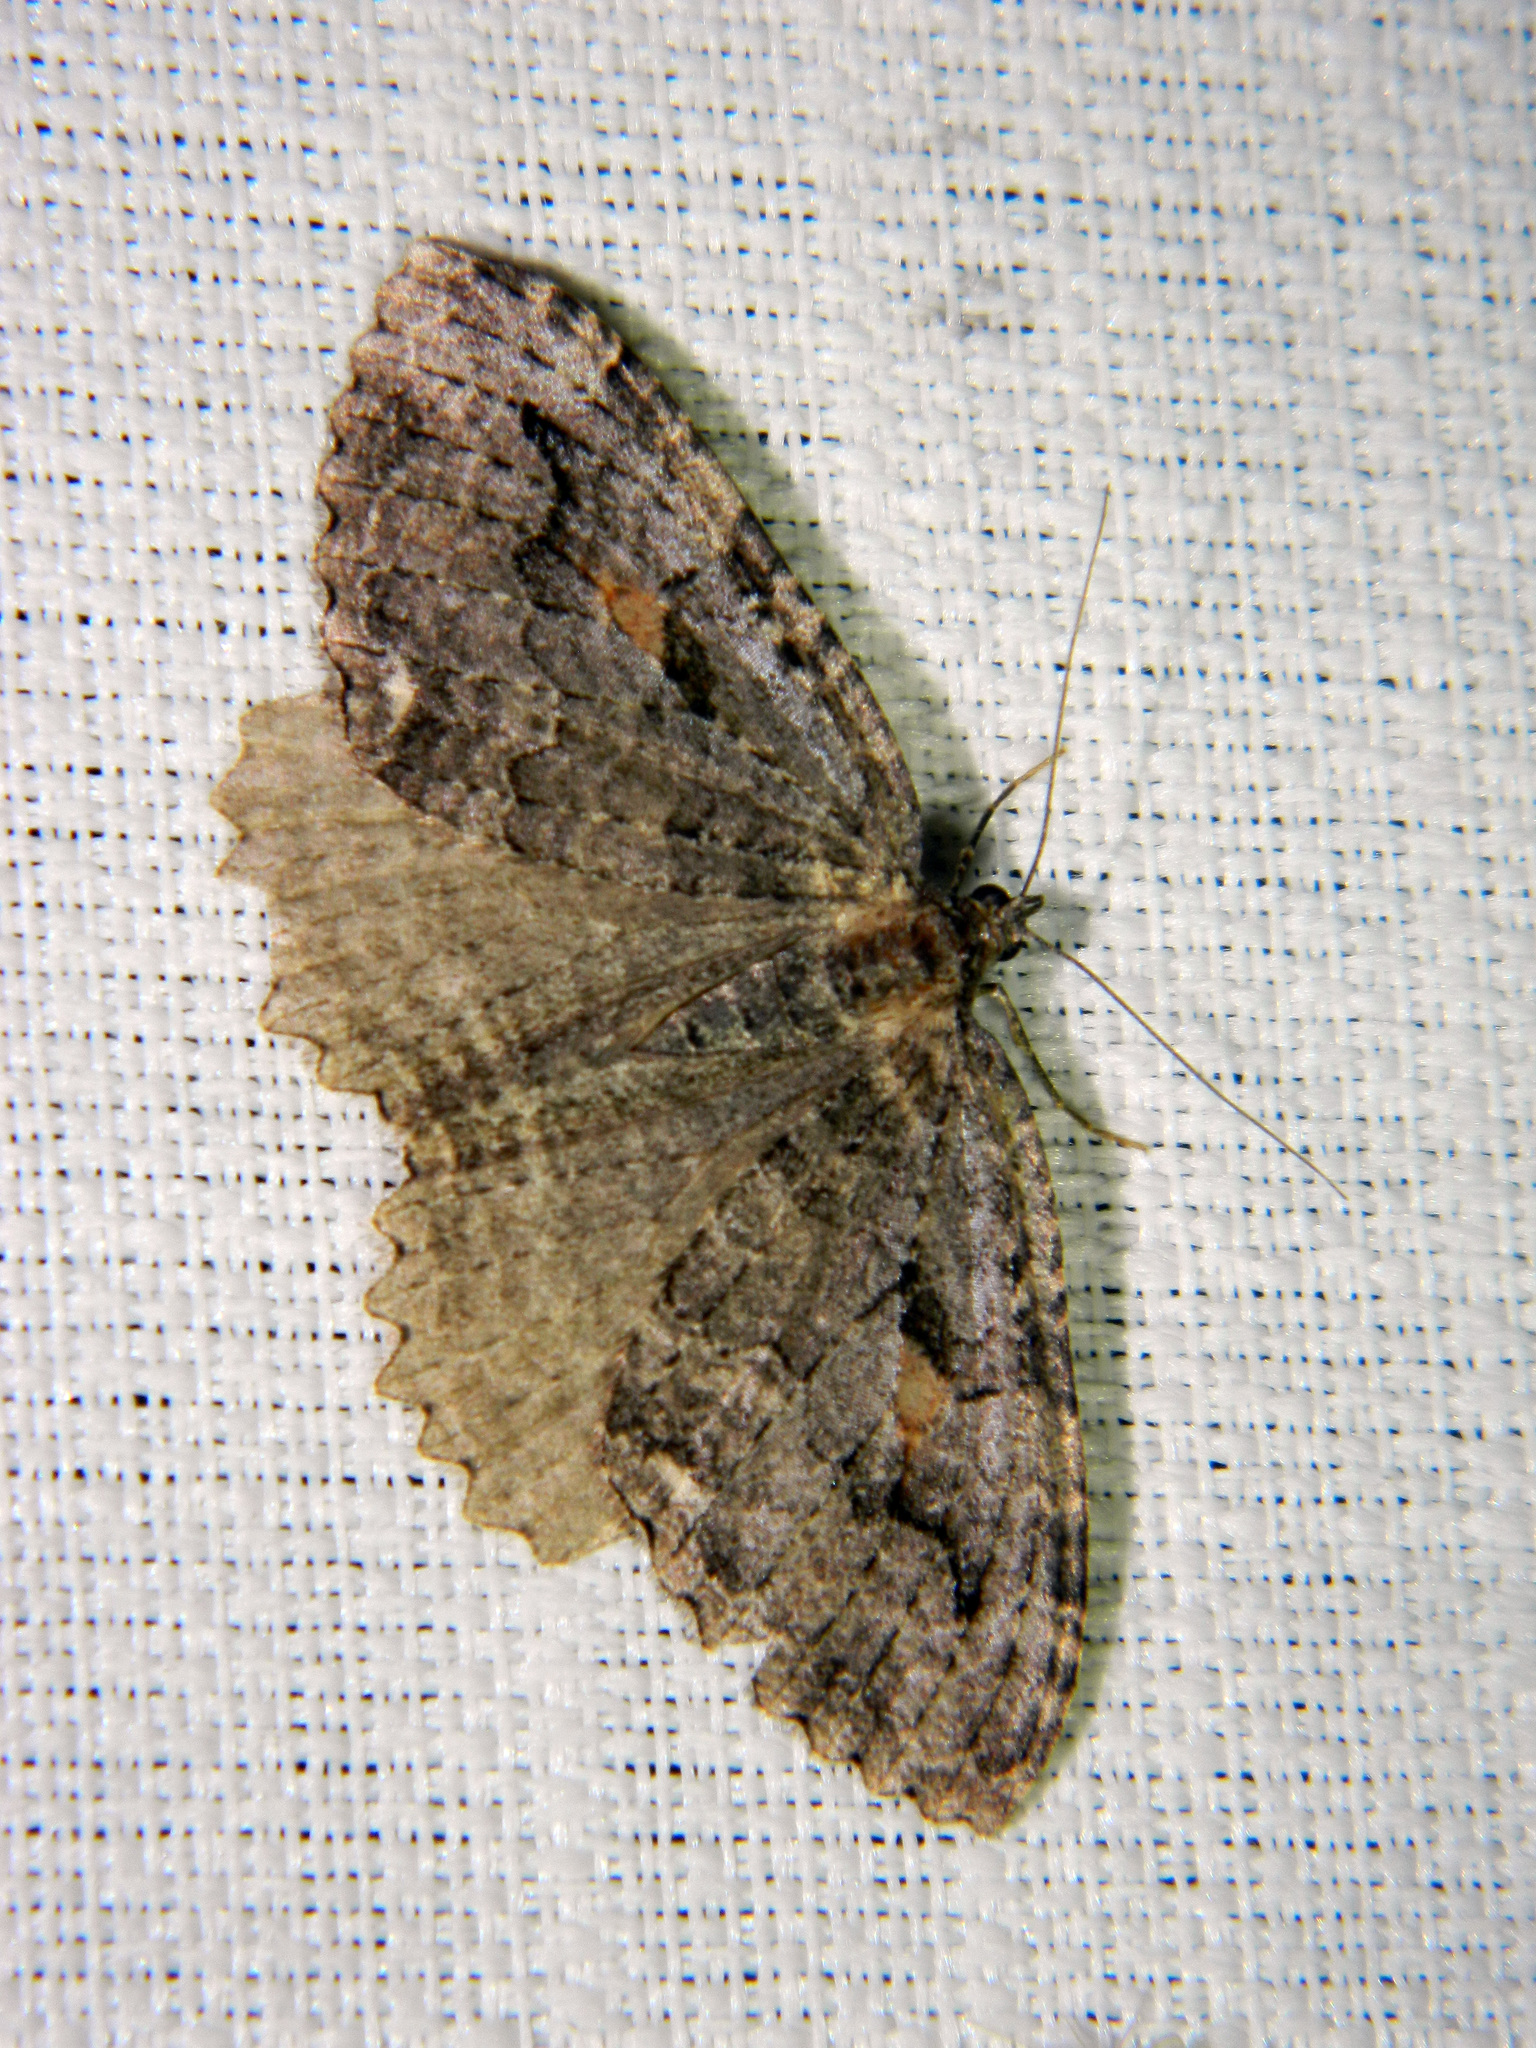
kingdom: Animalia
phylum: Arthropoda
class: Insecta
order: Lepidoptera
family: Geometridae
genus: Triphosa
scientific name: Triphosa haesitata
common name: Tissue moth
